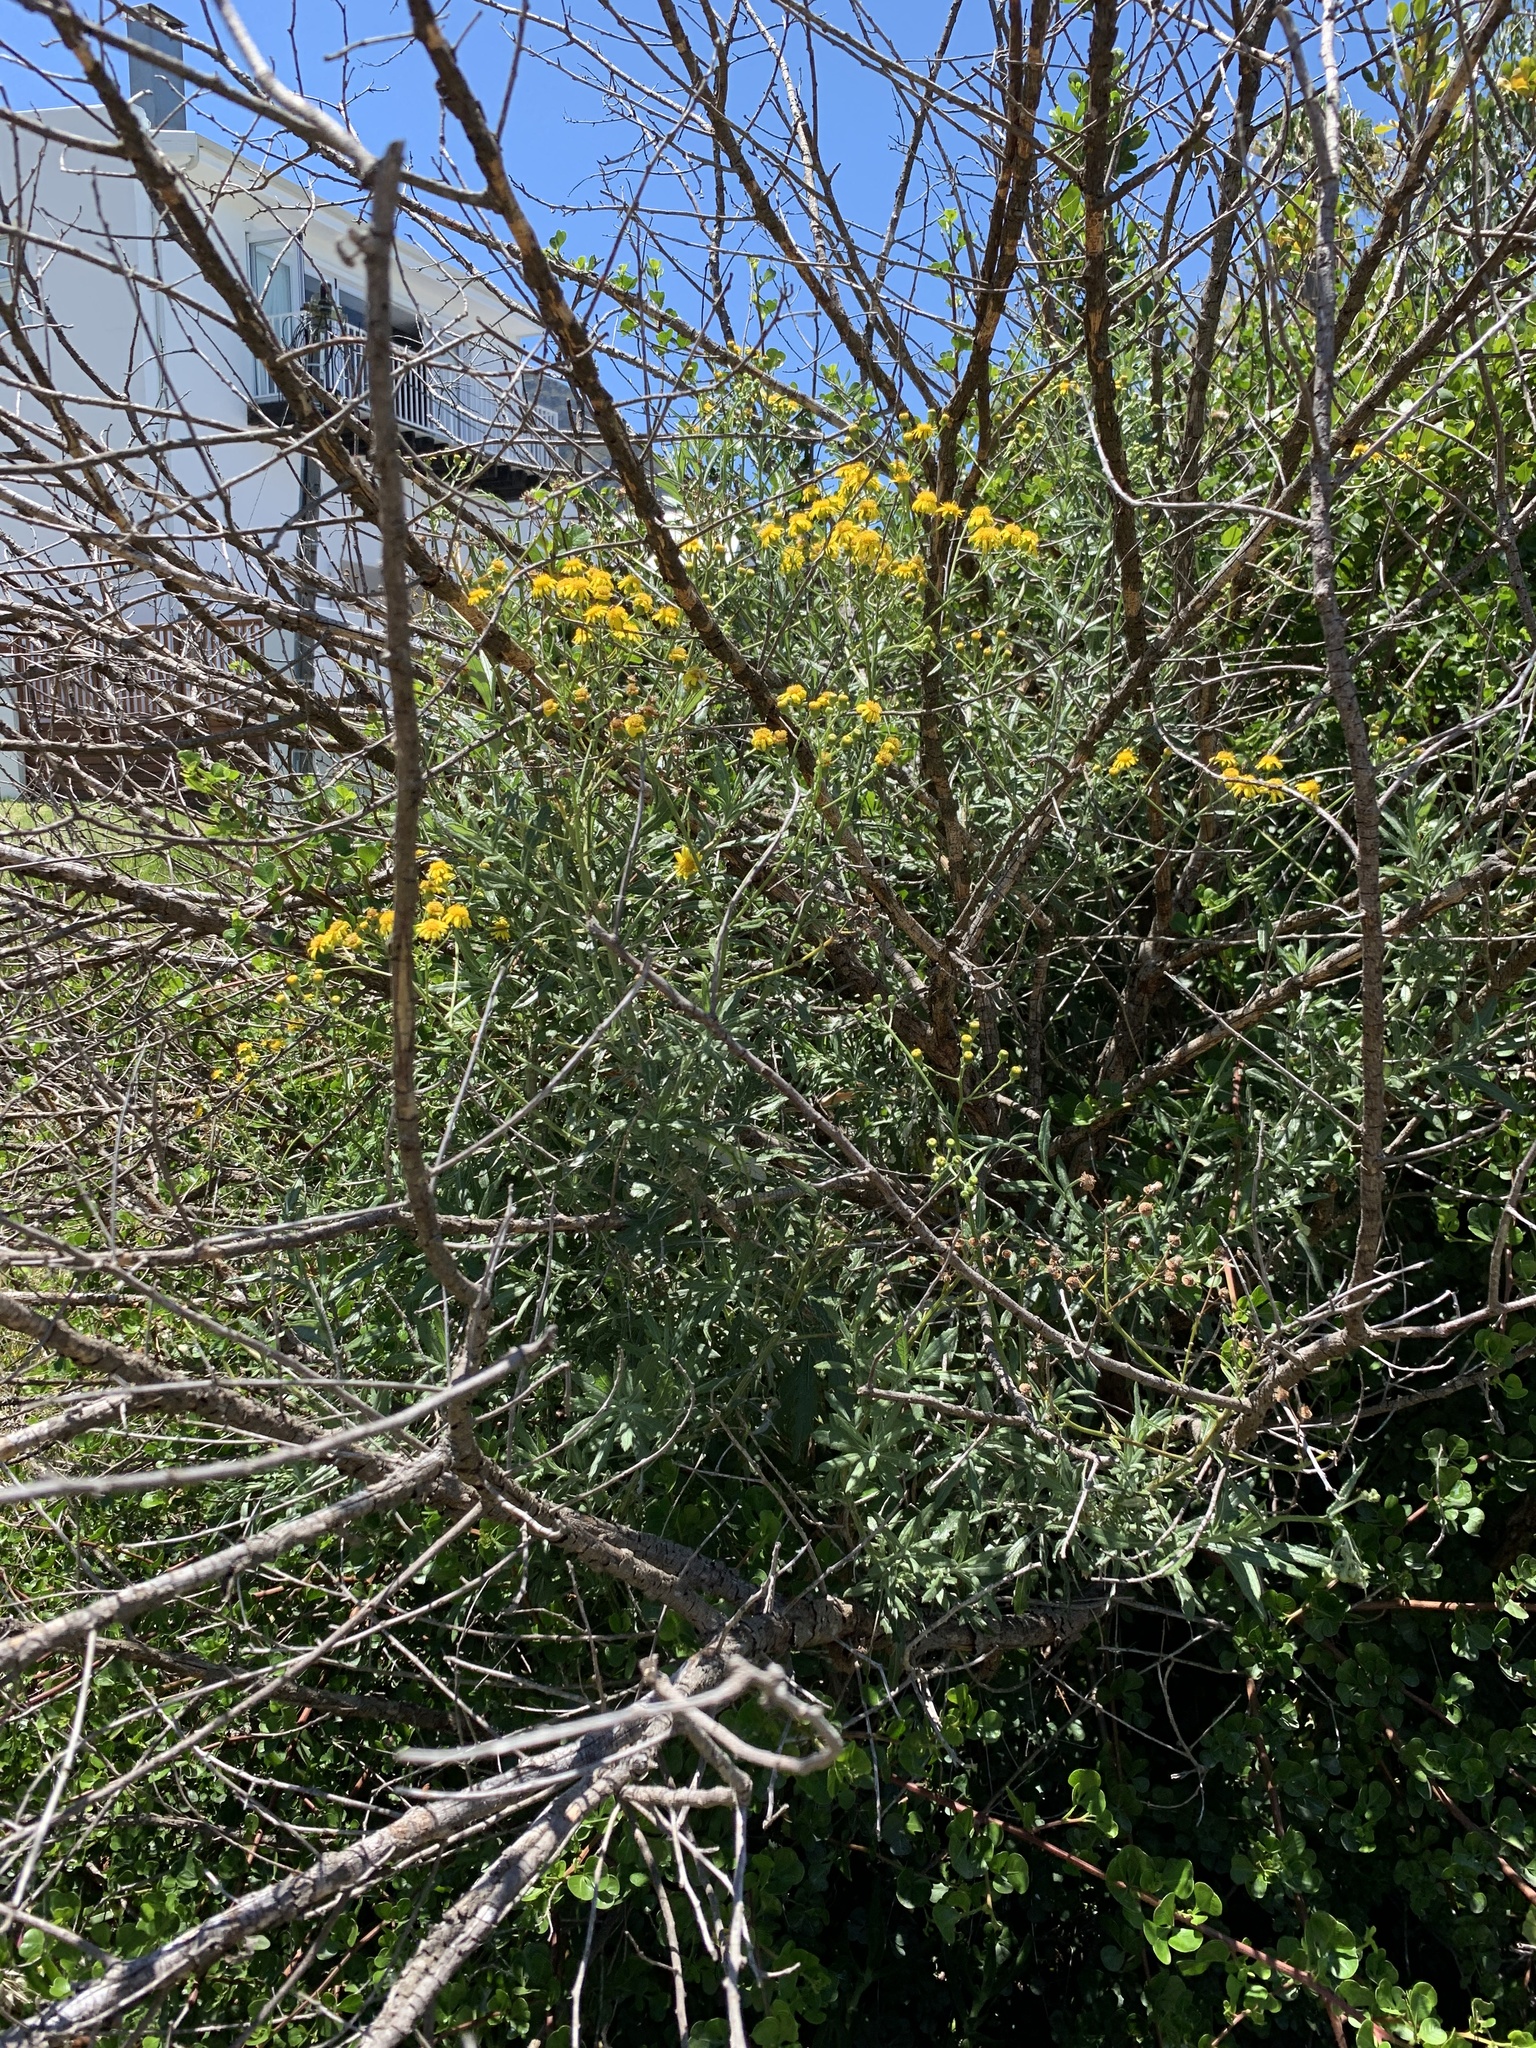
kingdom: Plantae
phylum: Tracheophyta
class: Magnoliopsida
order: Asterales
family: Asteraceae
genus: Senecio
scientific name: Senecio pterophorus
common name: Shoddy ragwort
